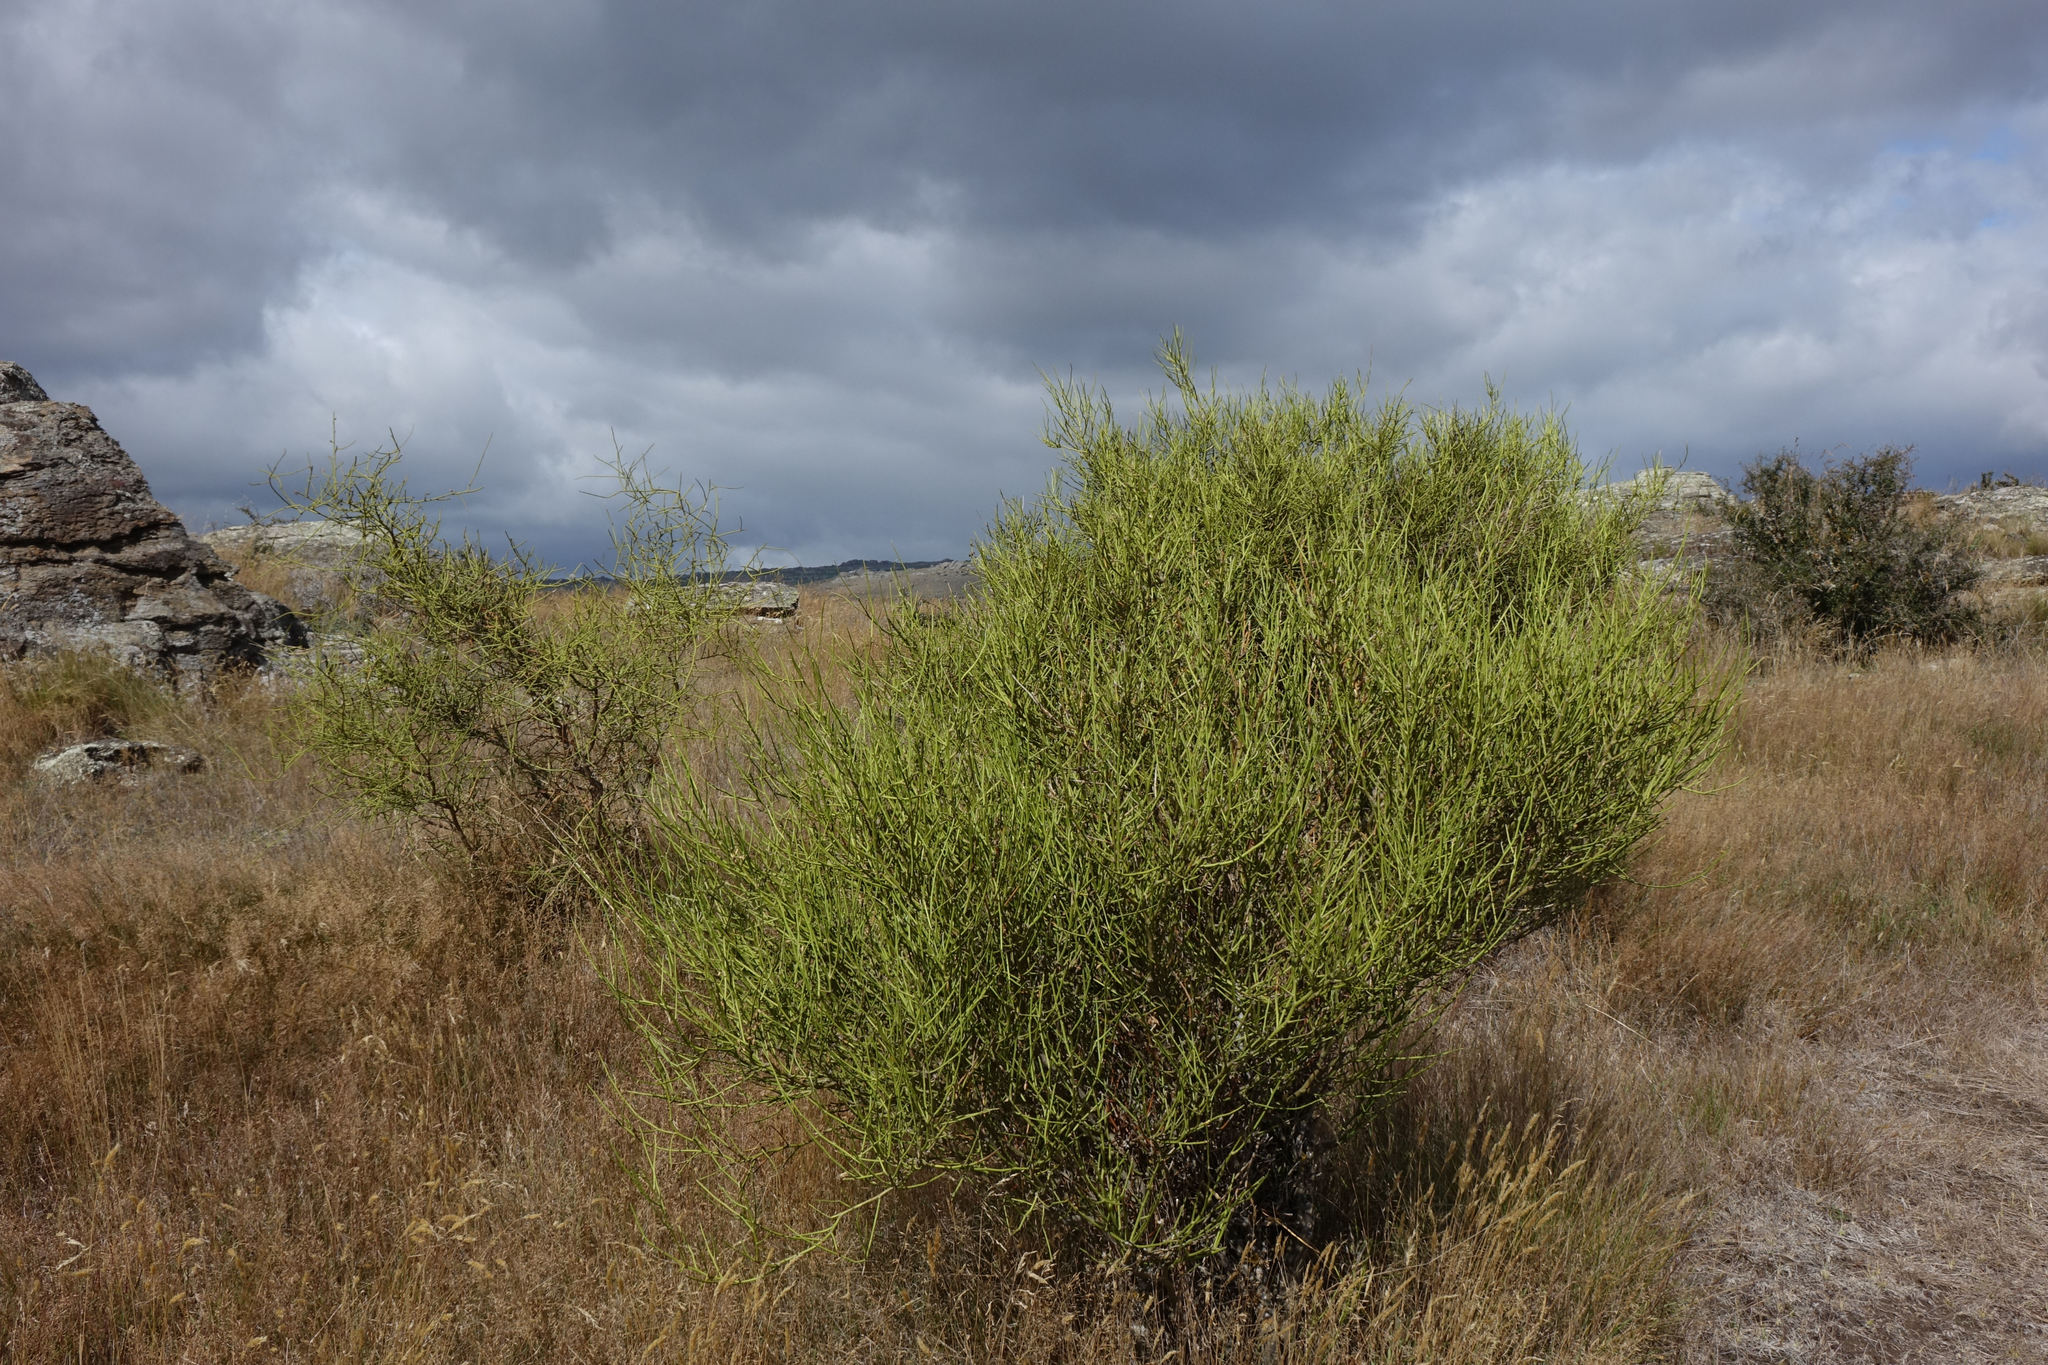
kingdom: Plantae
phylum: Tracheophyta
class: Magnoliopsida
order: Fabales
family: Fabaceae
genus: Carmichaelia
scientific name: Carmichaelia petriei
